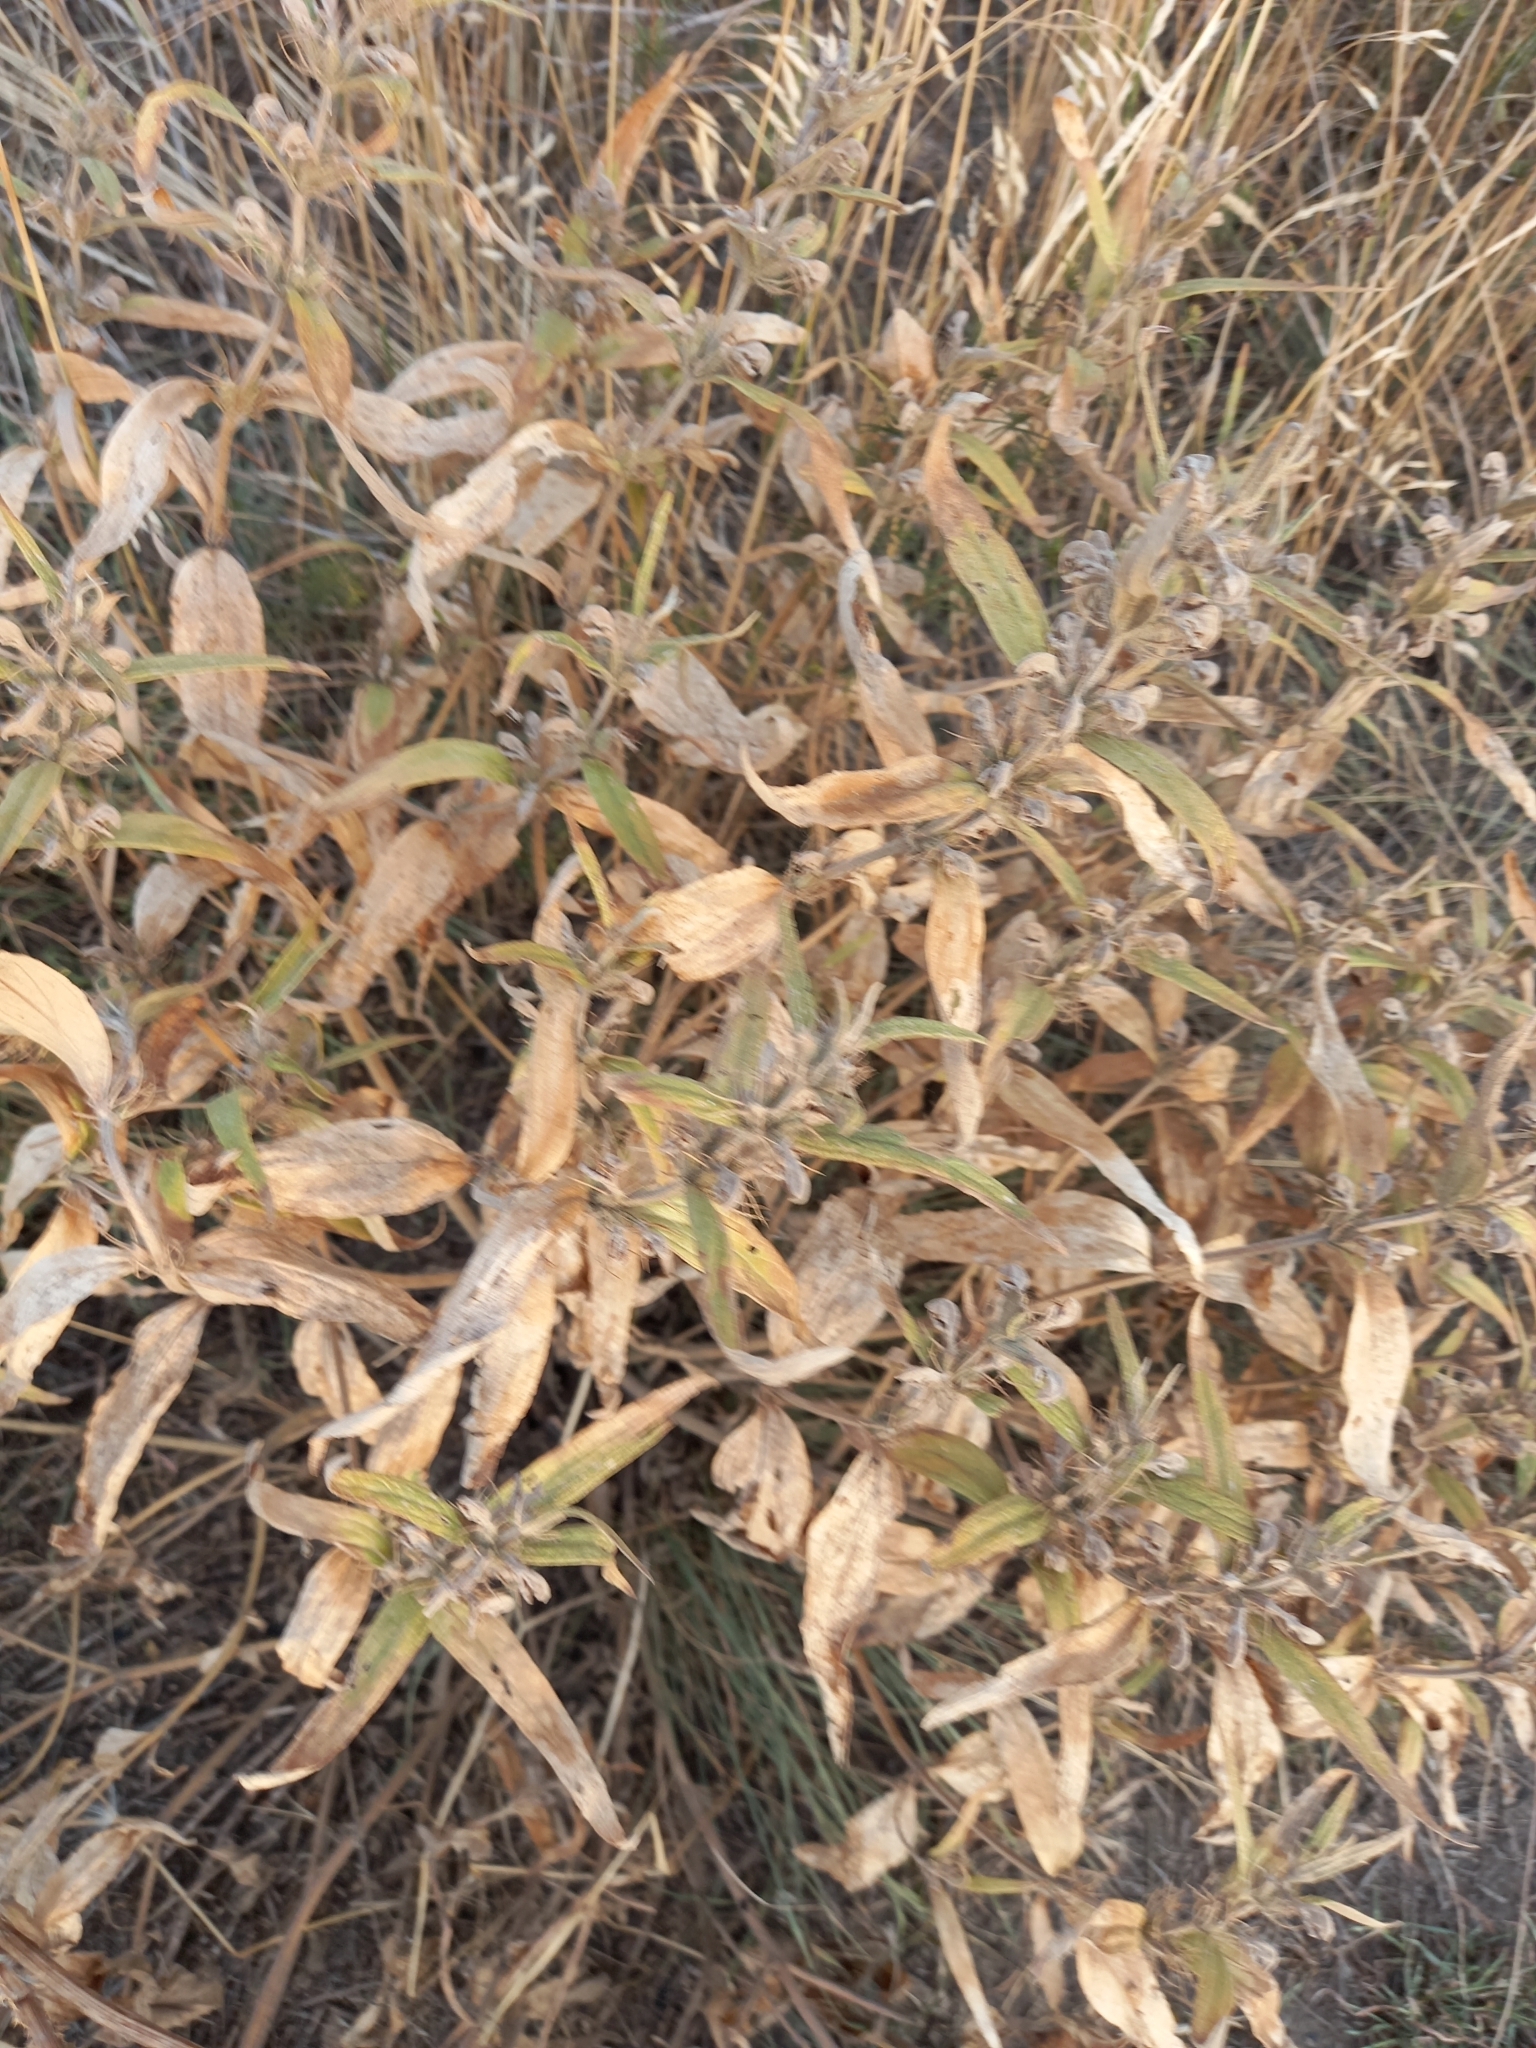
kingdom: Plantae
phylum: Tracheophyta
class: Magnoliopsida
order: Lamiales
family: Lamiaceae
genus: Phlomis
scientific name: Phlomis herba-venti
